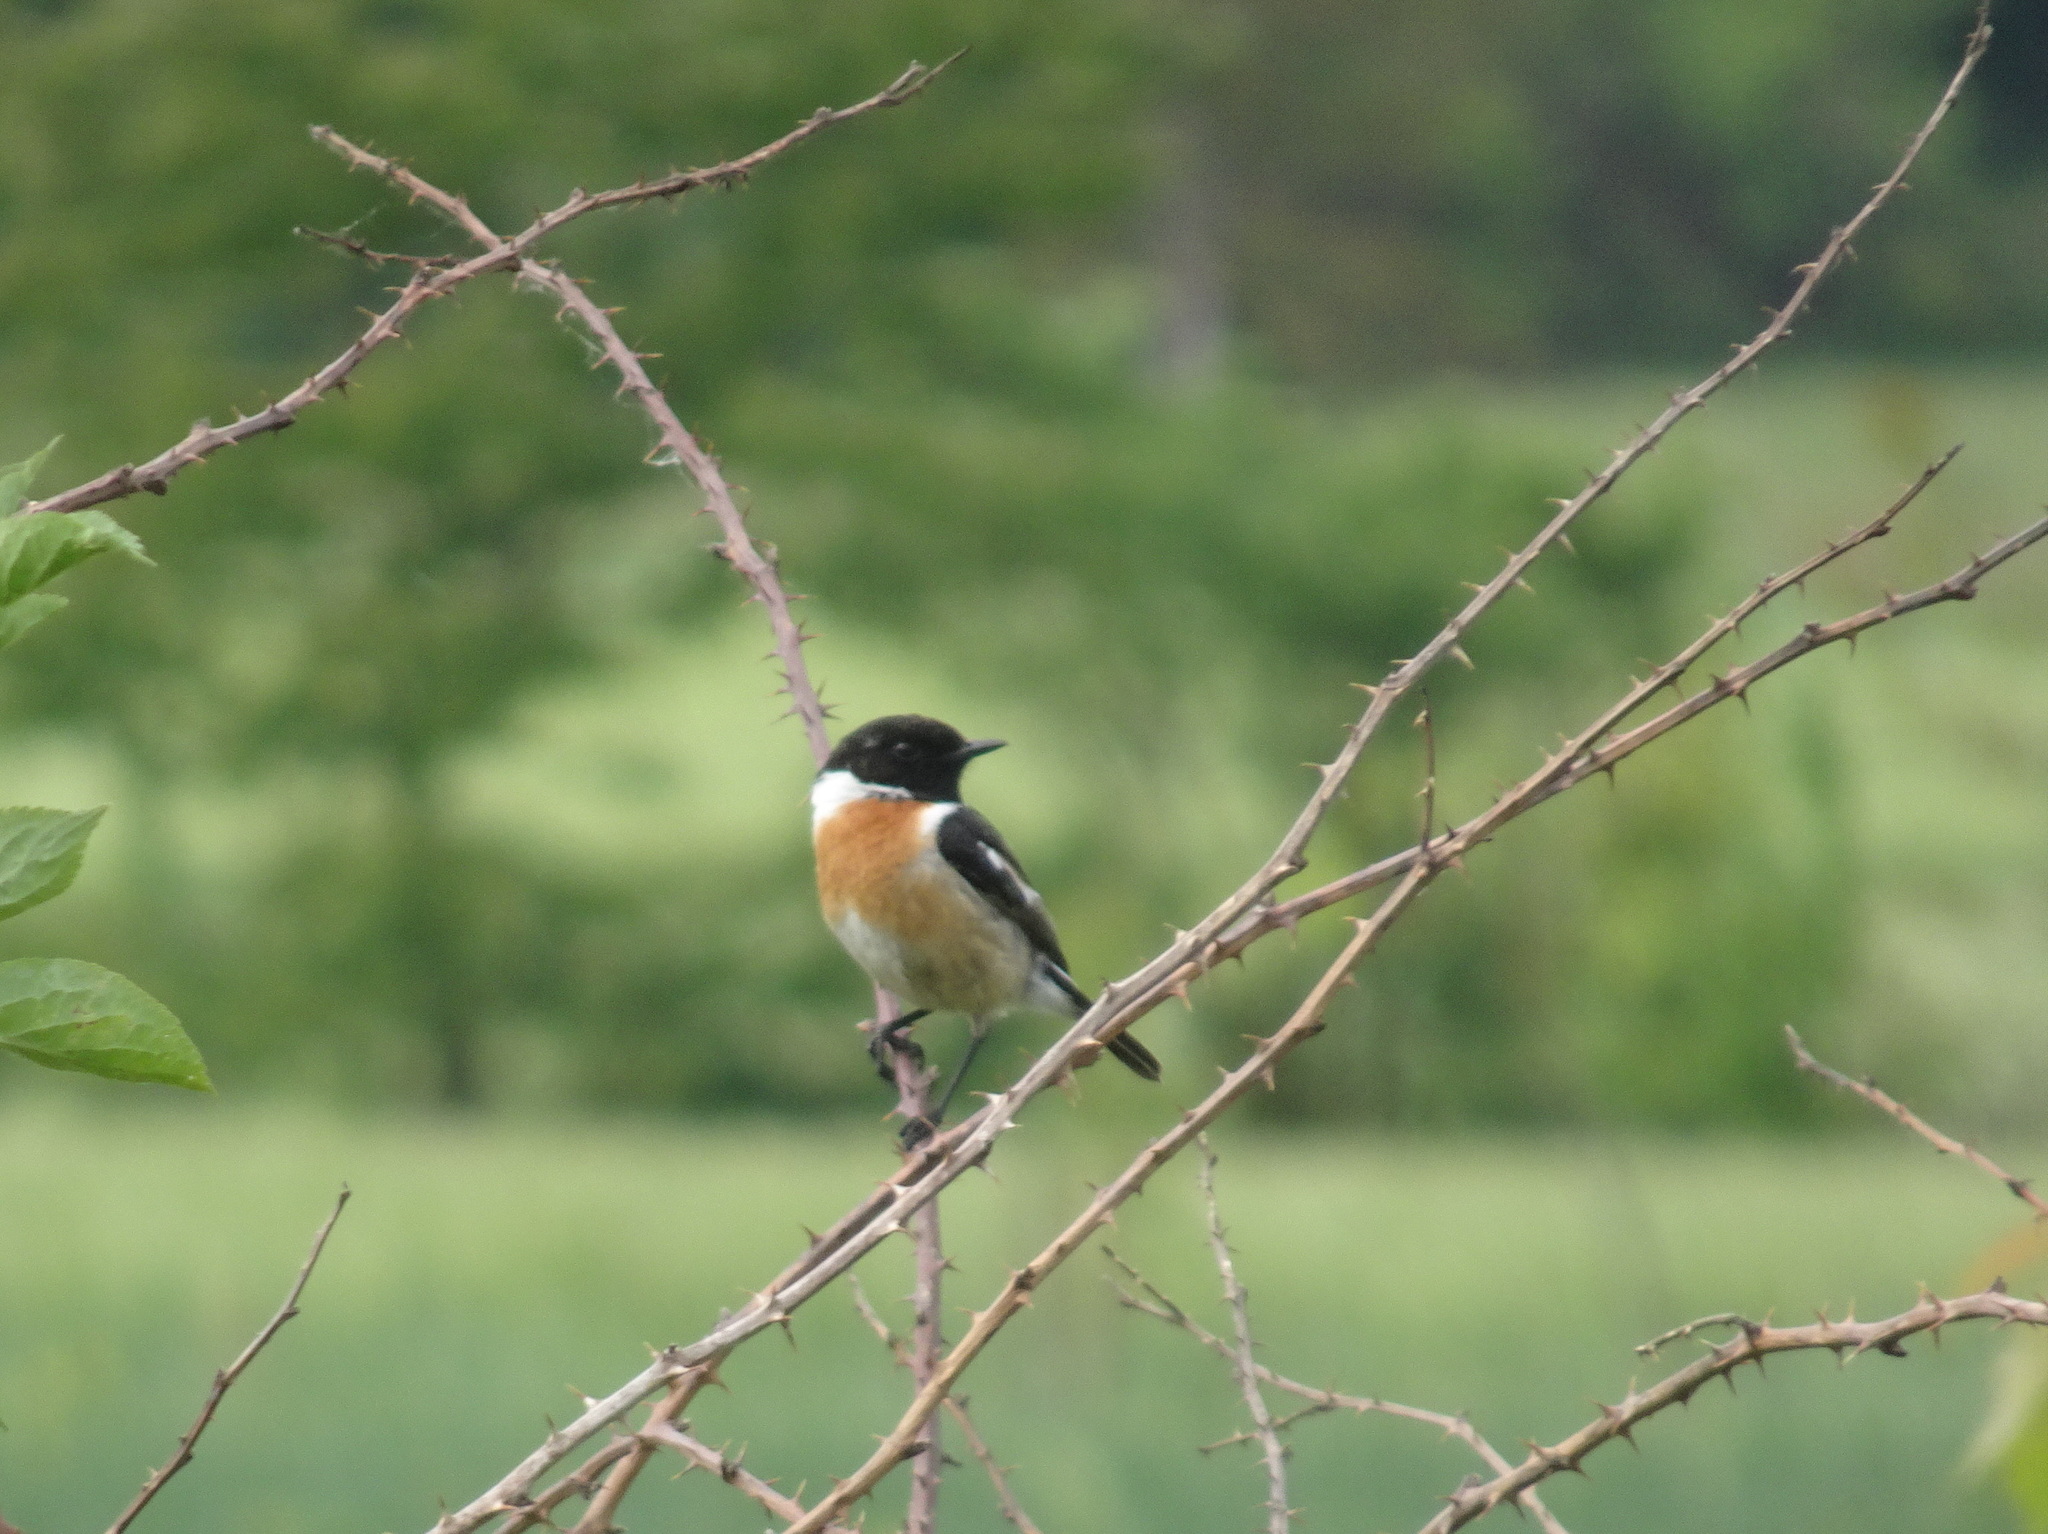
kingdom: Animalia
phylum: Chordata
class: Aves
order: Passeriformes
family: Muscicapidae
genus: Saxicola
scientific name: Saxicola rubicola
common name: European stonechat
